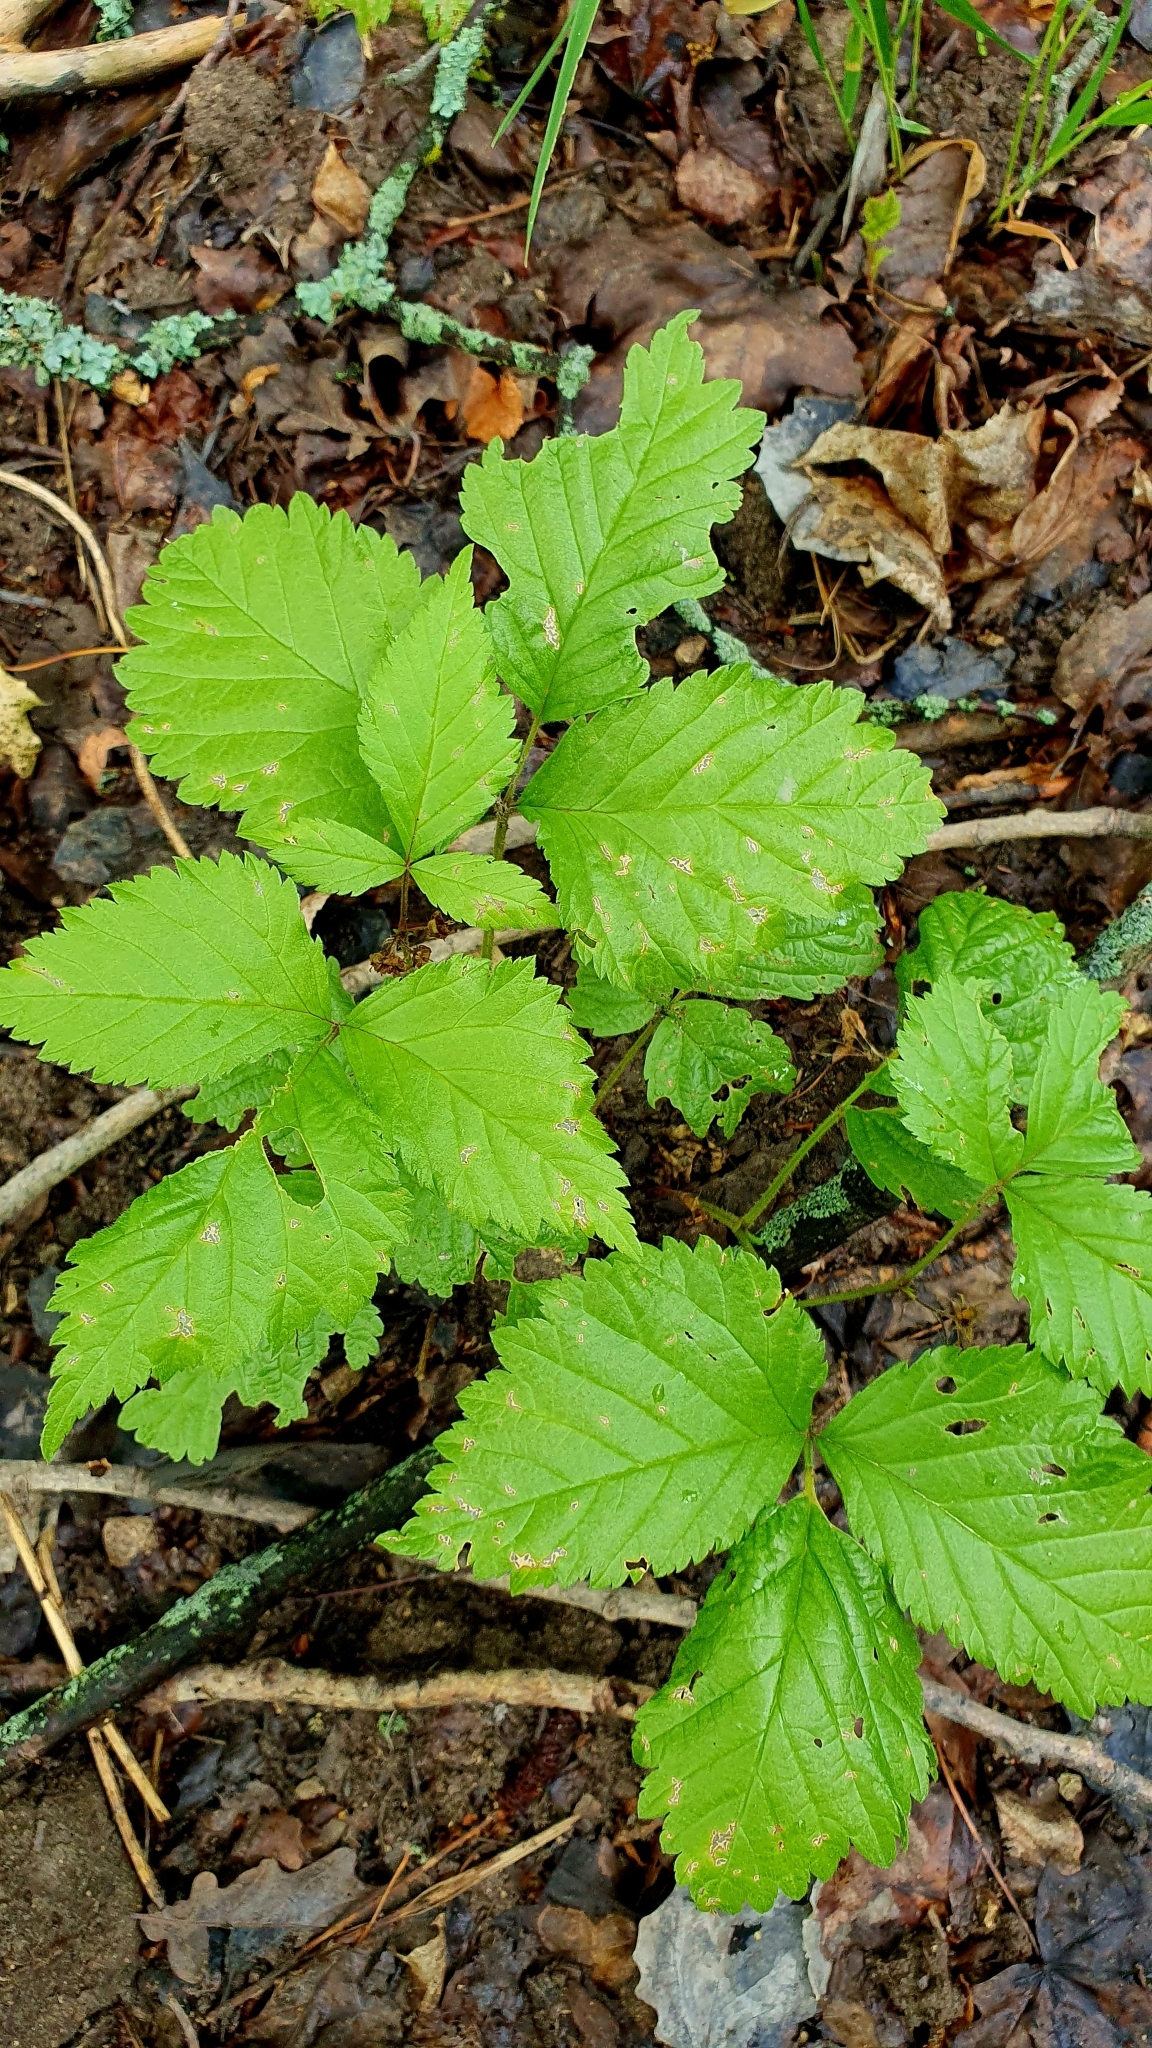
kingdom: Plantae
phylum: Tracheophyta
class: Magnoliopsida
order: Rosales
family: Rosaceae
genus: Rubus
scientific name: Rubus saxatilis
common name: Stone bramble
